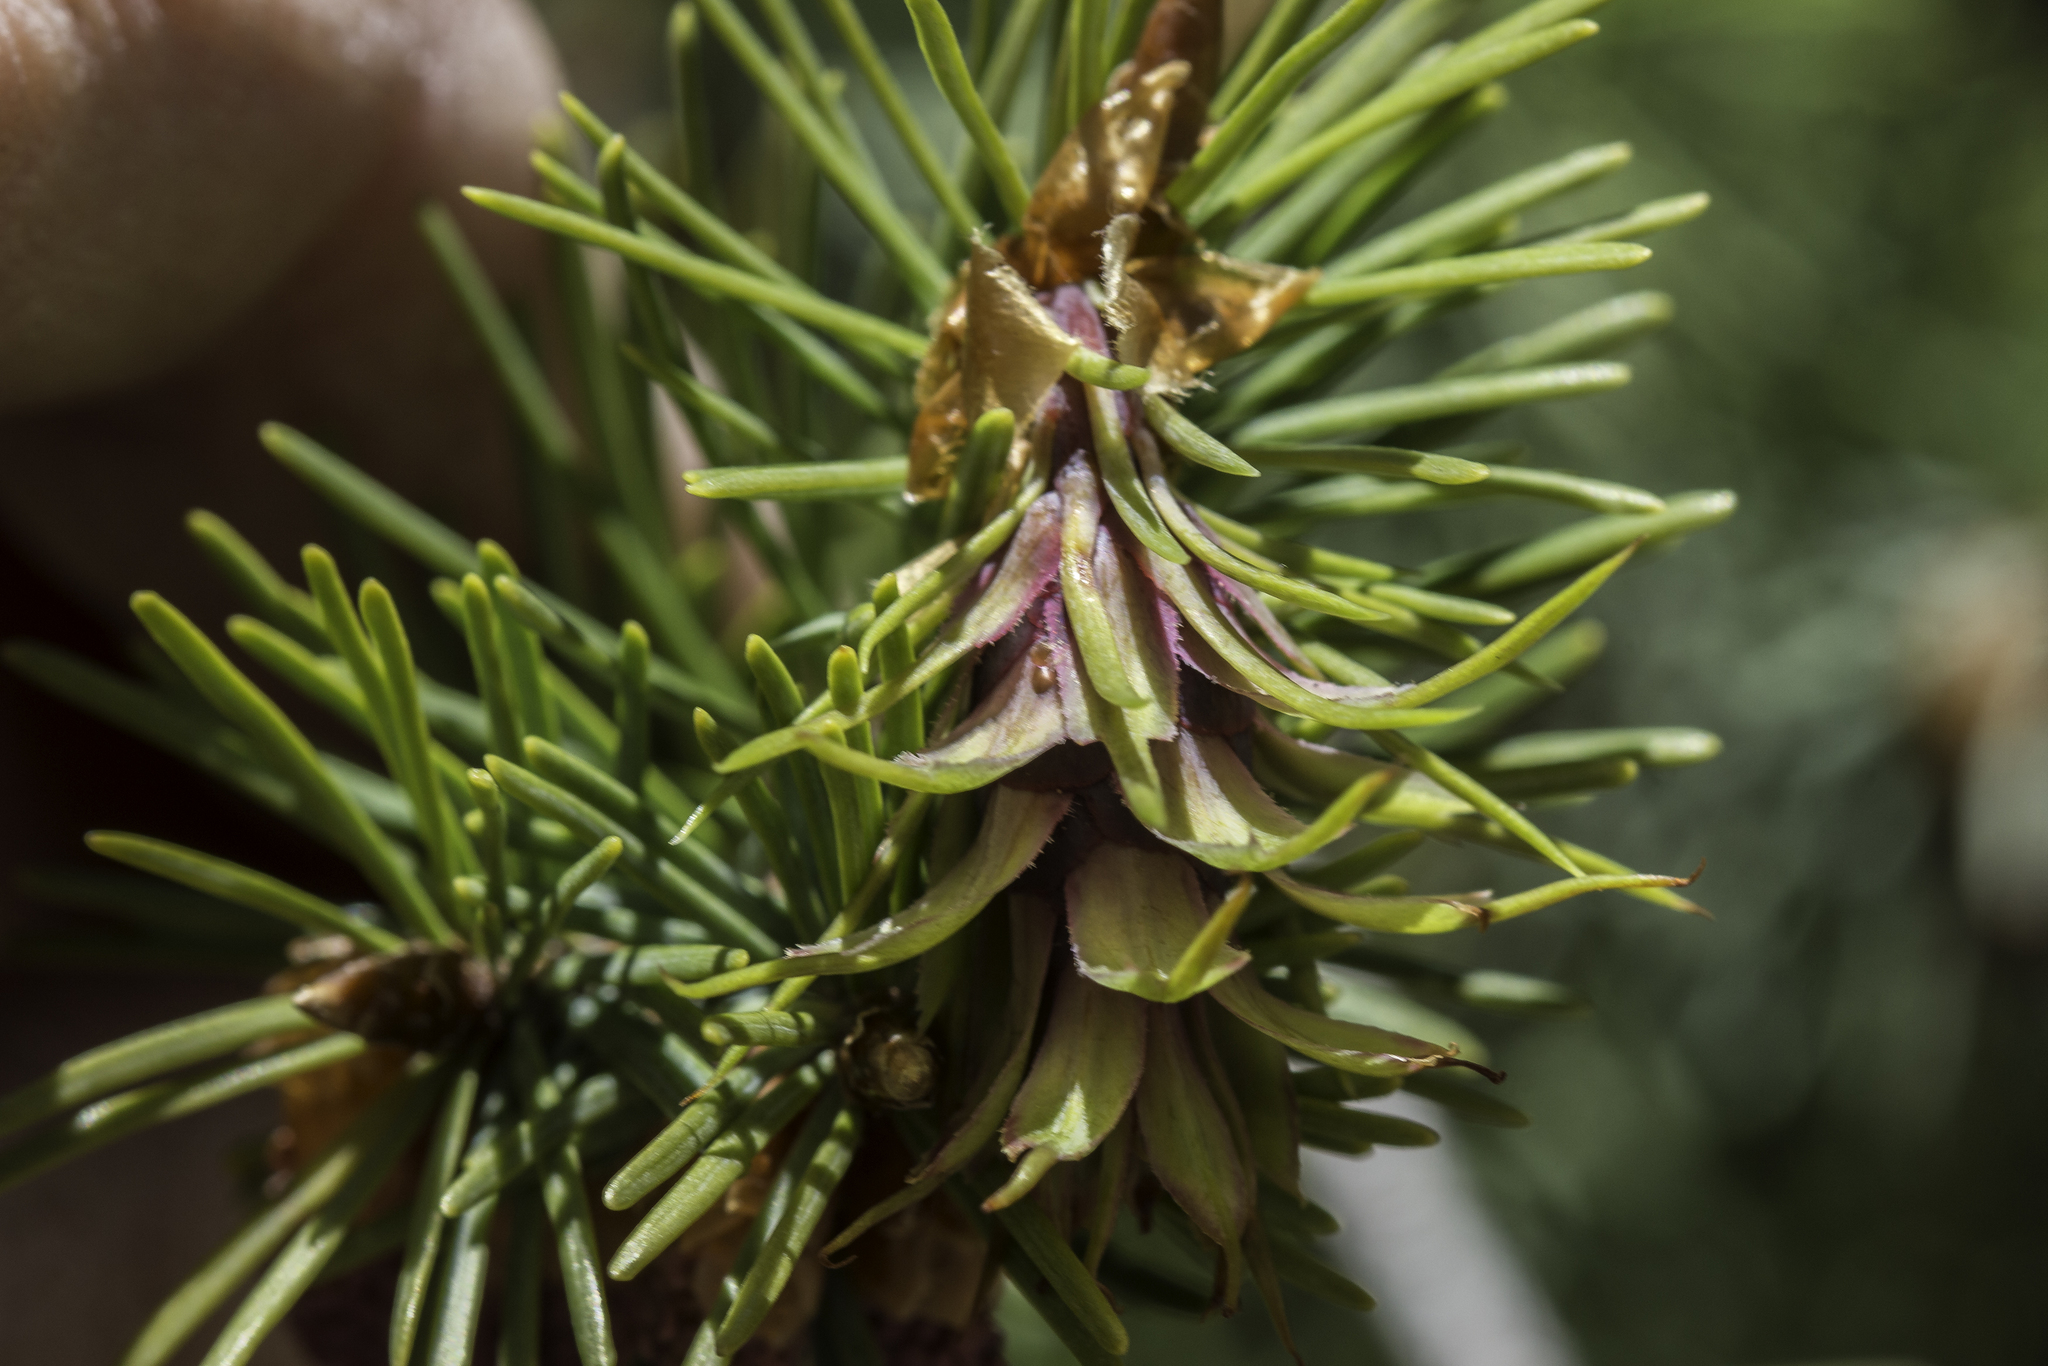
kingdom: Plantae
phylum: Tracheophyta
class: Pinopsida
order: Pinales
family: Pinaceae
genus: Pseudotsuga
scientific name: Pseudotsuga menziesii
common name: Douglas fir
